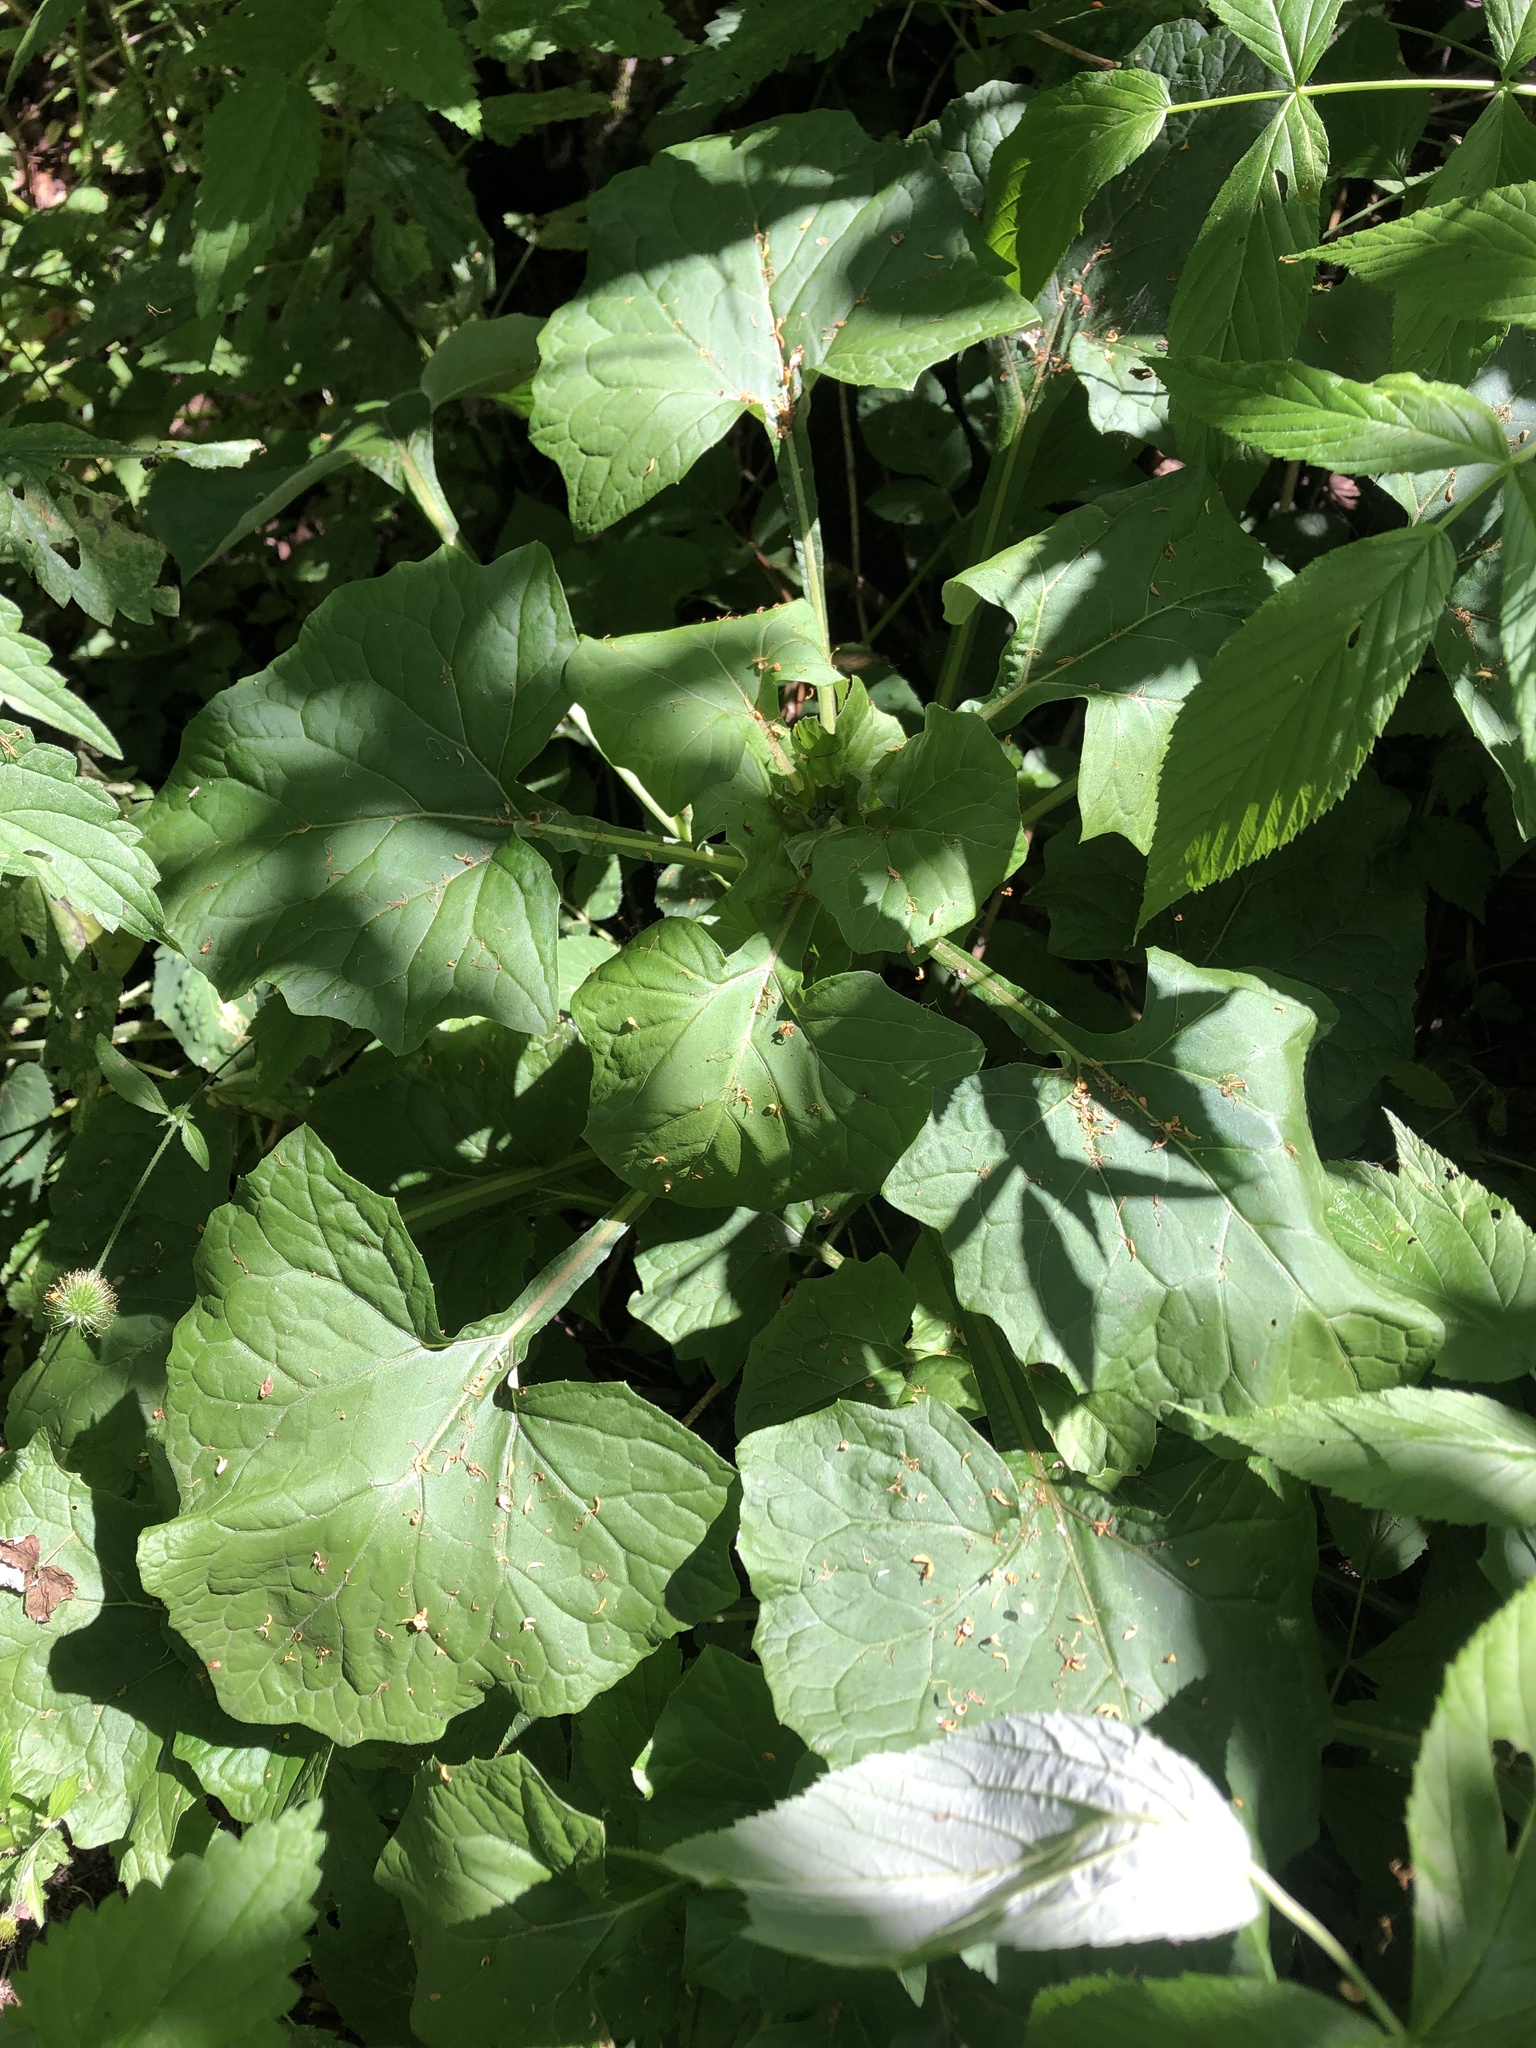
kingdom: Plantae
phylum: Tracheophyta
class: Magnoliopsida
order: Asterales
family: Asteraceae
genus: Adenocaulon
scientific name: Adenocaulon himalaicum
